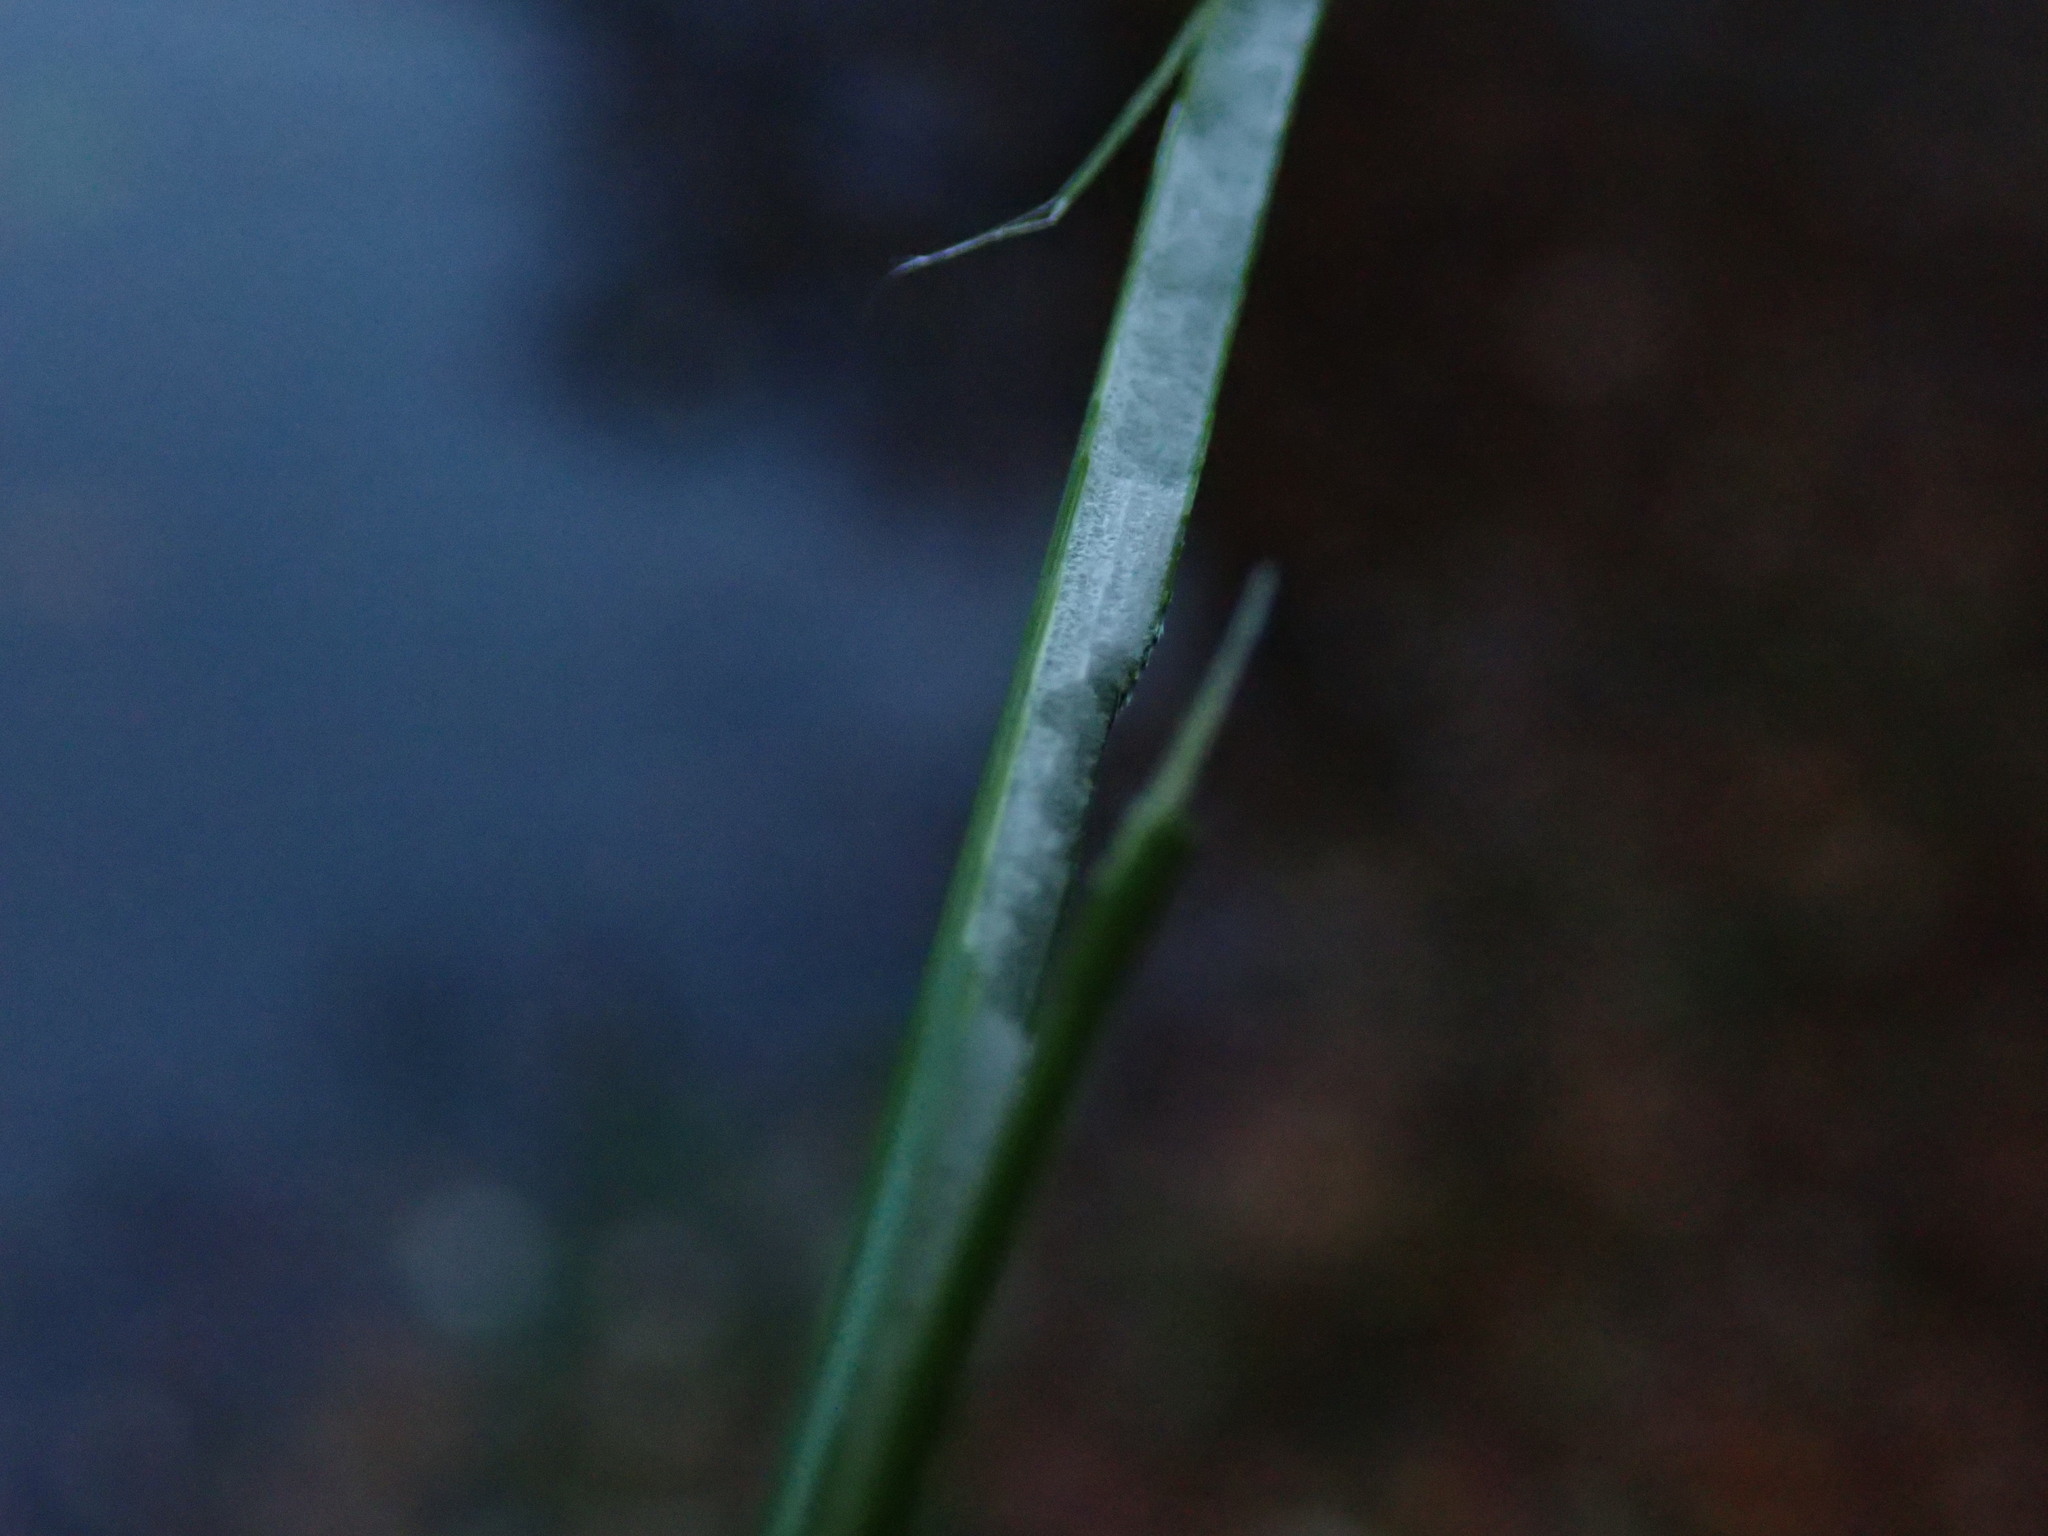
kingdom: Plantae
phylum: Tracheophyta
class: Liliopsida
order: Poales
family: Juncaceae
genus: Juncus
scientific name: Juncus effusus
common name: Soft rush
